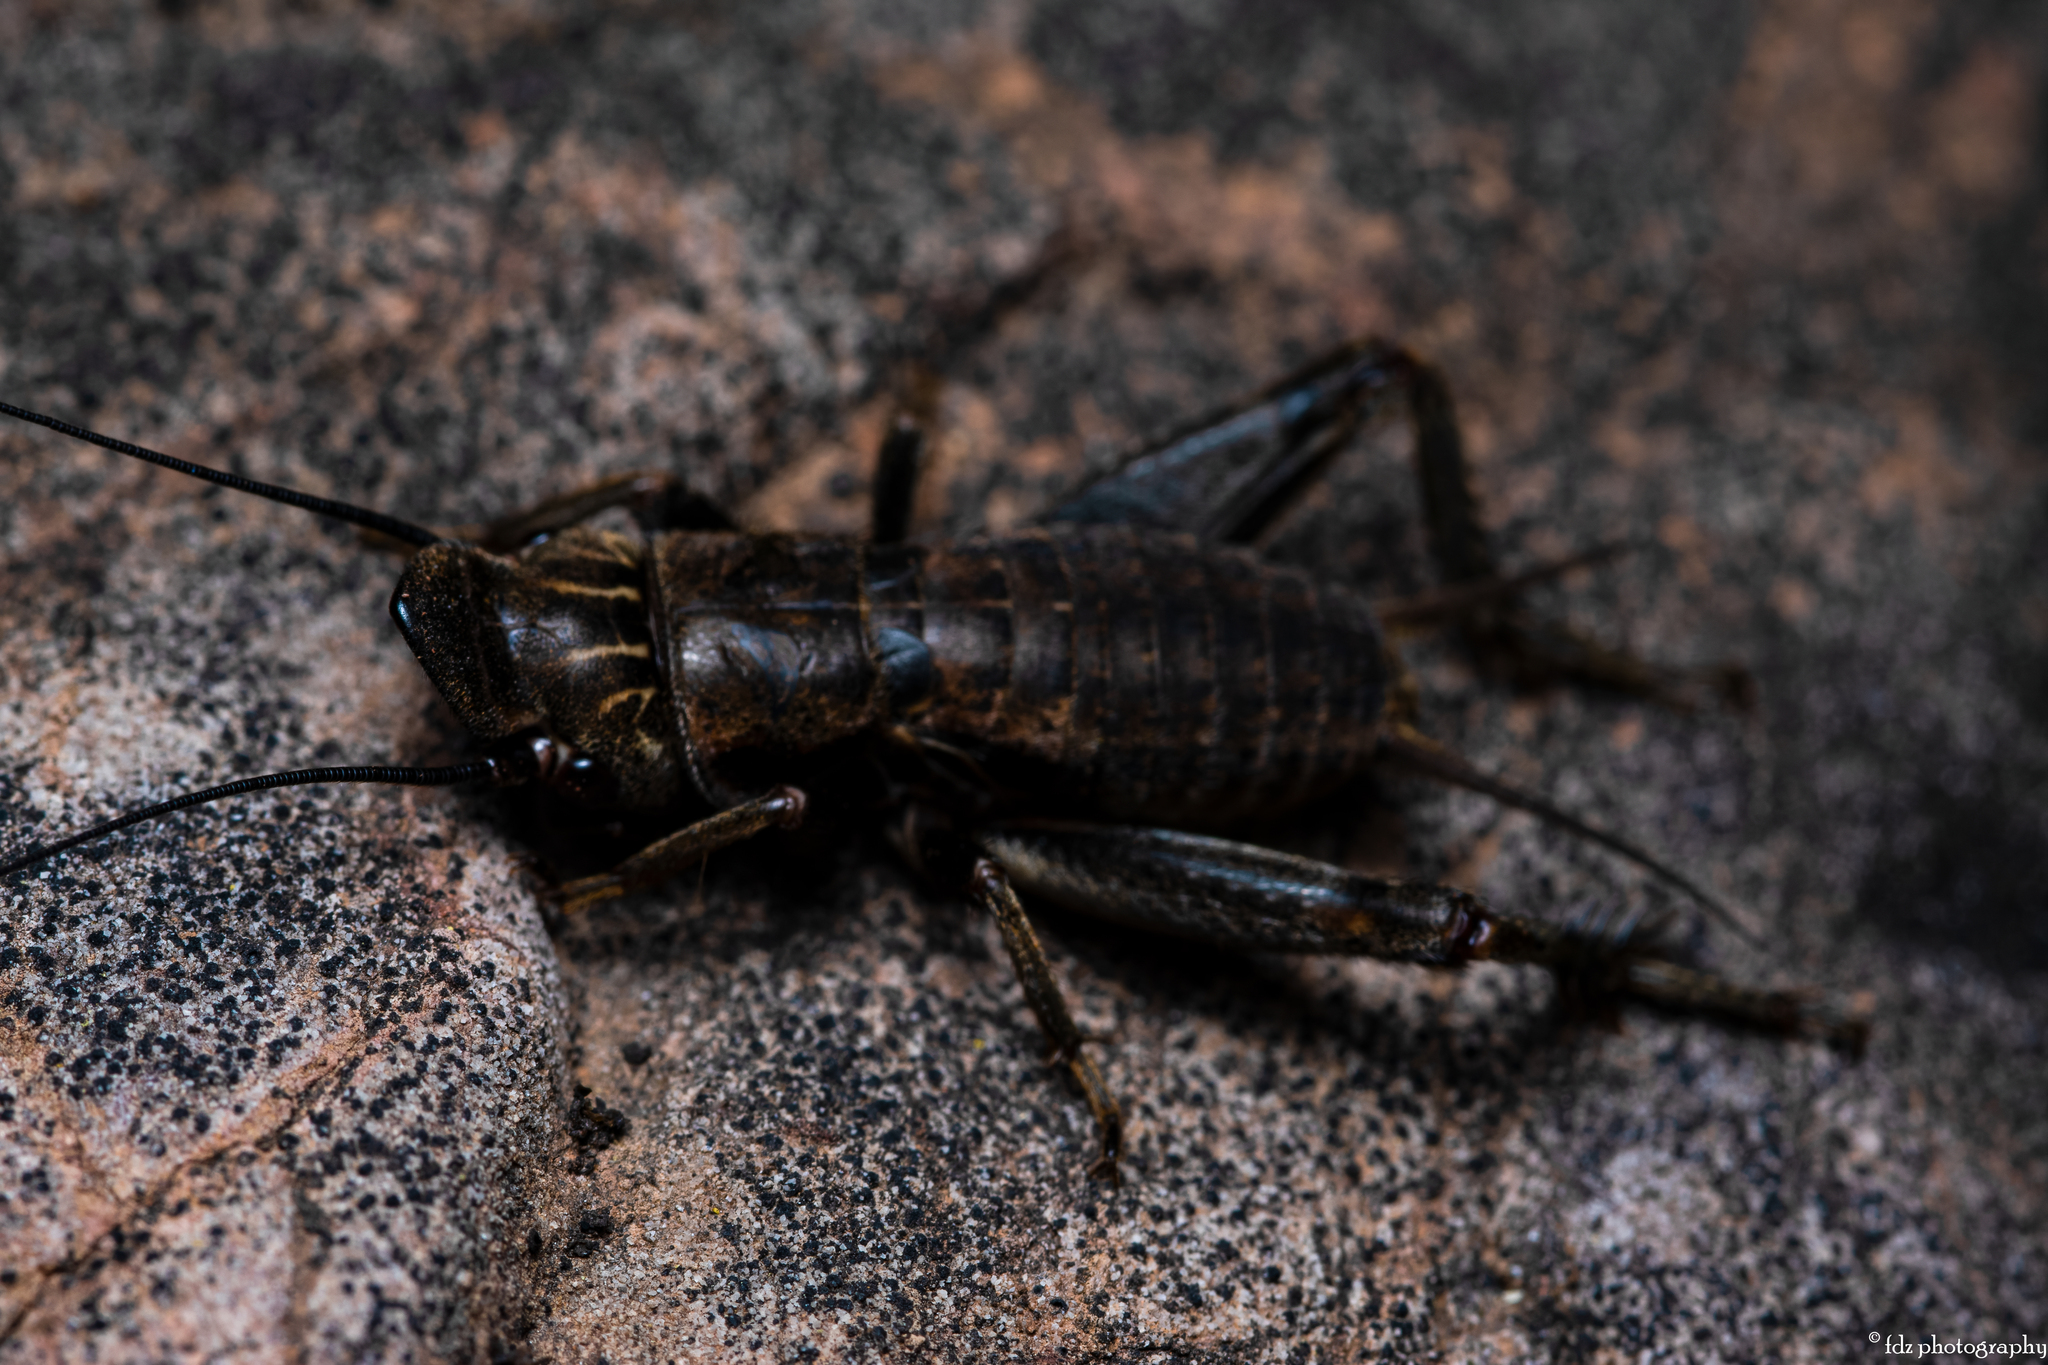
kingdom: Animalia
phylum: Arthropoda
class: Insecta
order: Orthoptera
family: Gryllidae
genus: Sciobia
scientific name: Sciobia lusitanica
